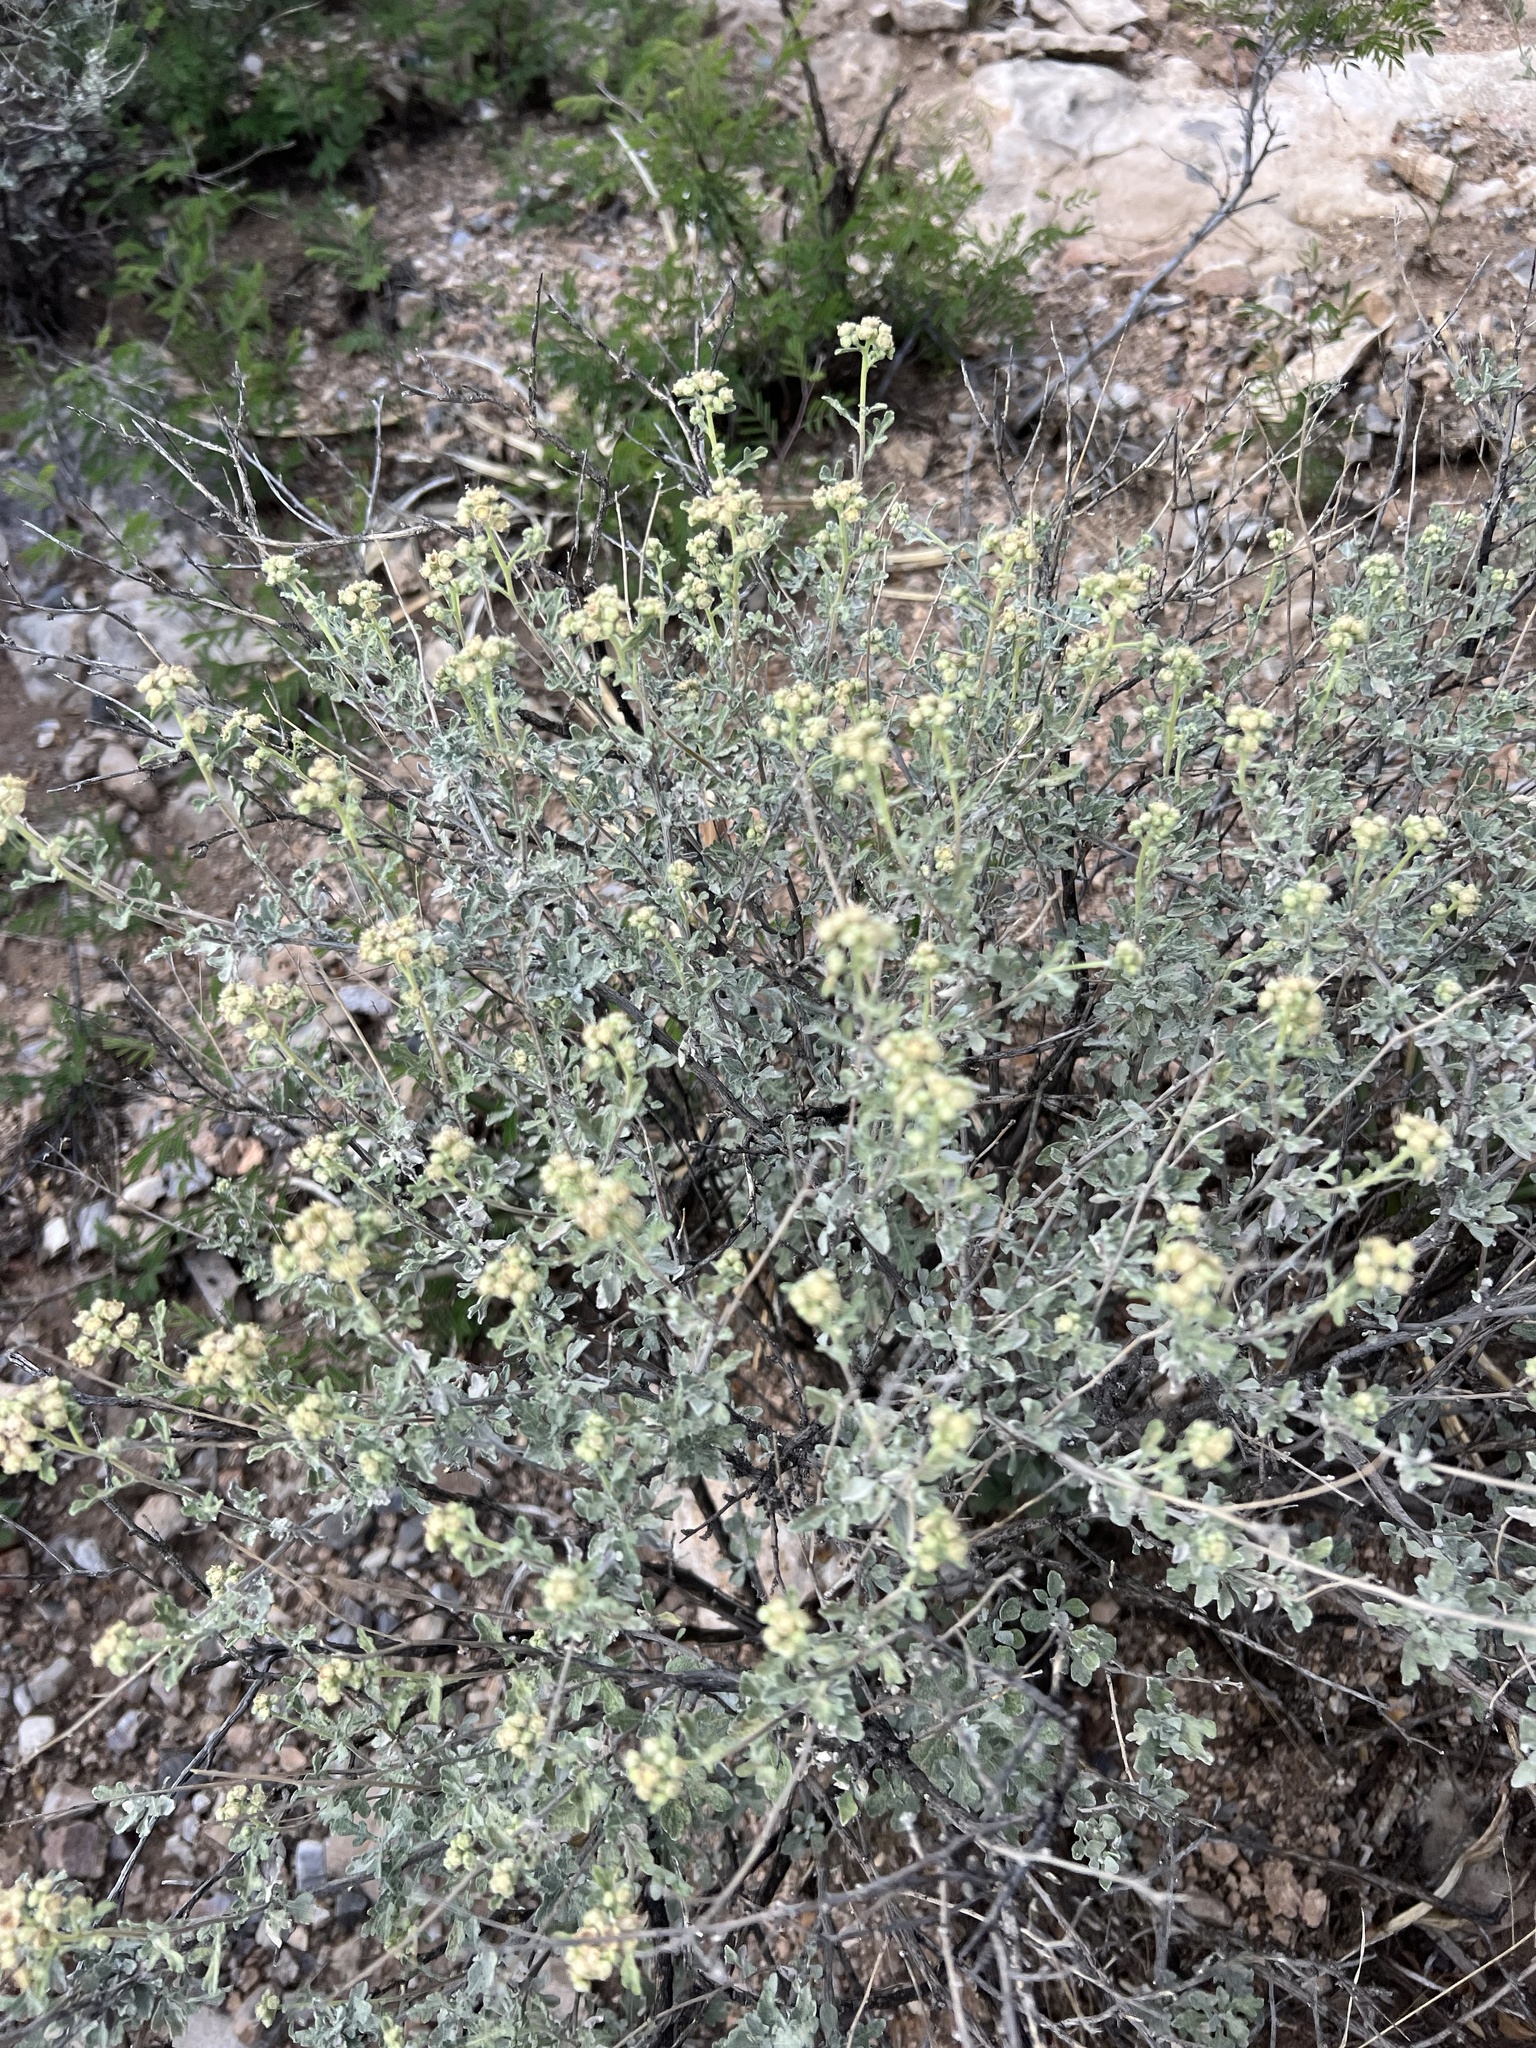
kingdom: Plantae
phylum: Tracheophyta
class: Magnoliopsida
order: Asterales
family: Asteraceae
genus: Parthenium
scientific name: Parthenium incanum
